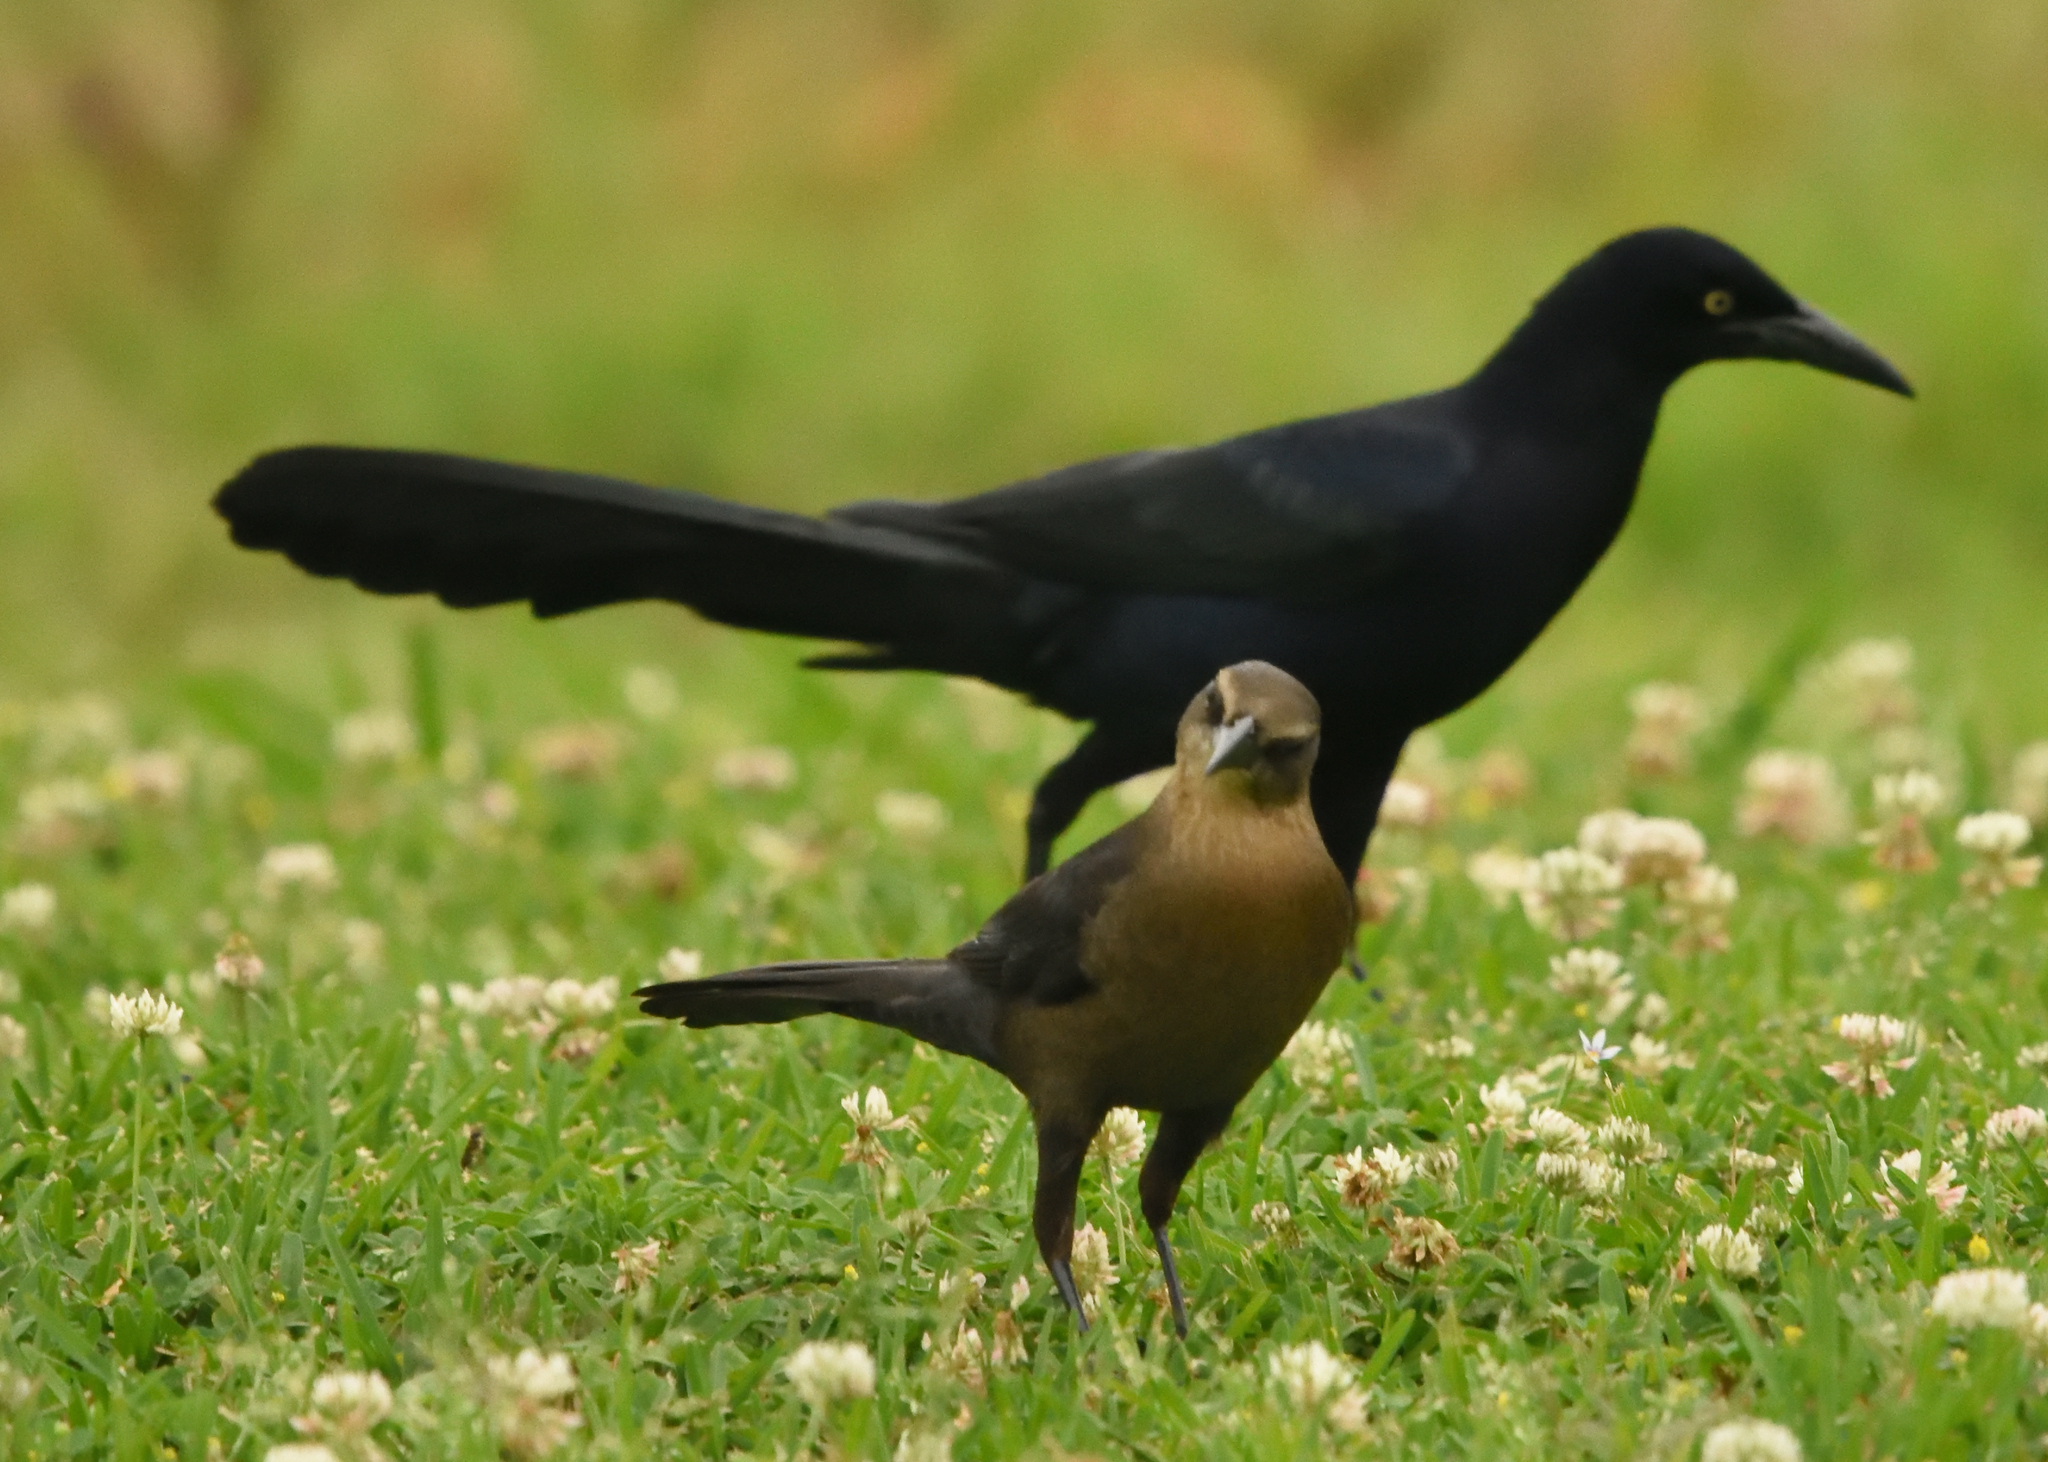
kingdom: Animalia
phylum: Chordata
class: Aves
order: Passeriformes
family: Icteridae
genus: Quiscalus
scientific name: Quiscalus mexicanus
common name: Great-tailed grackle
